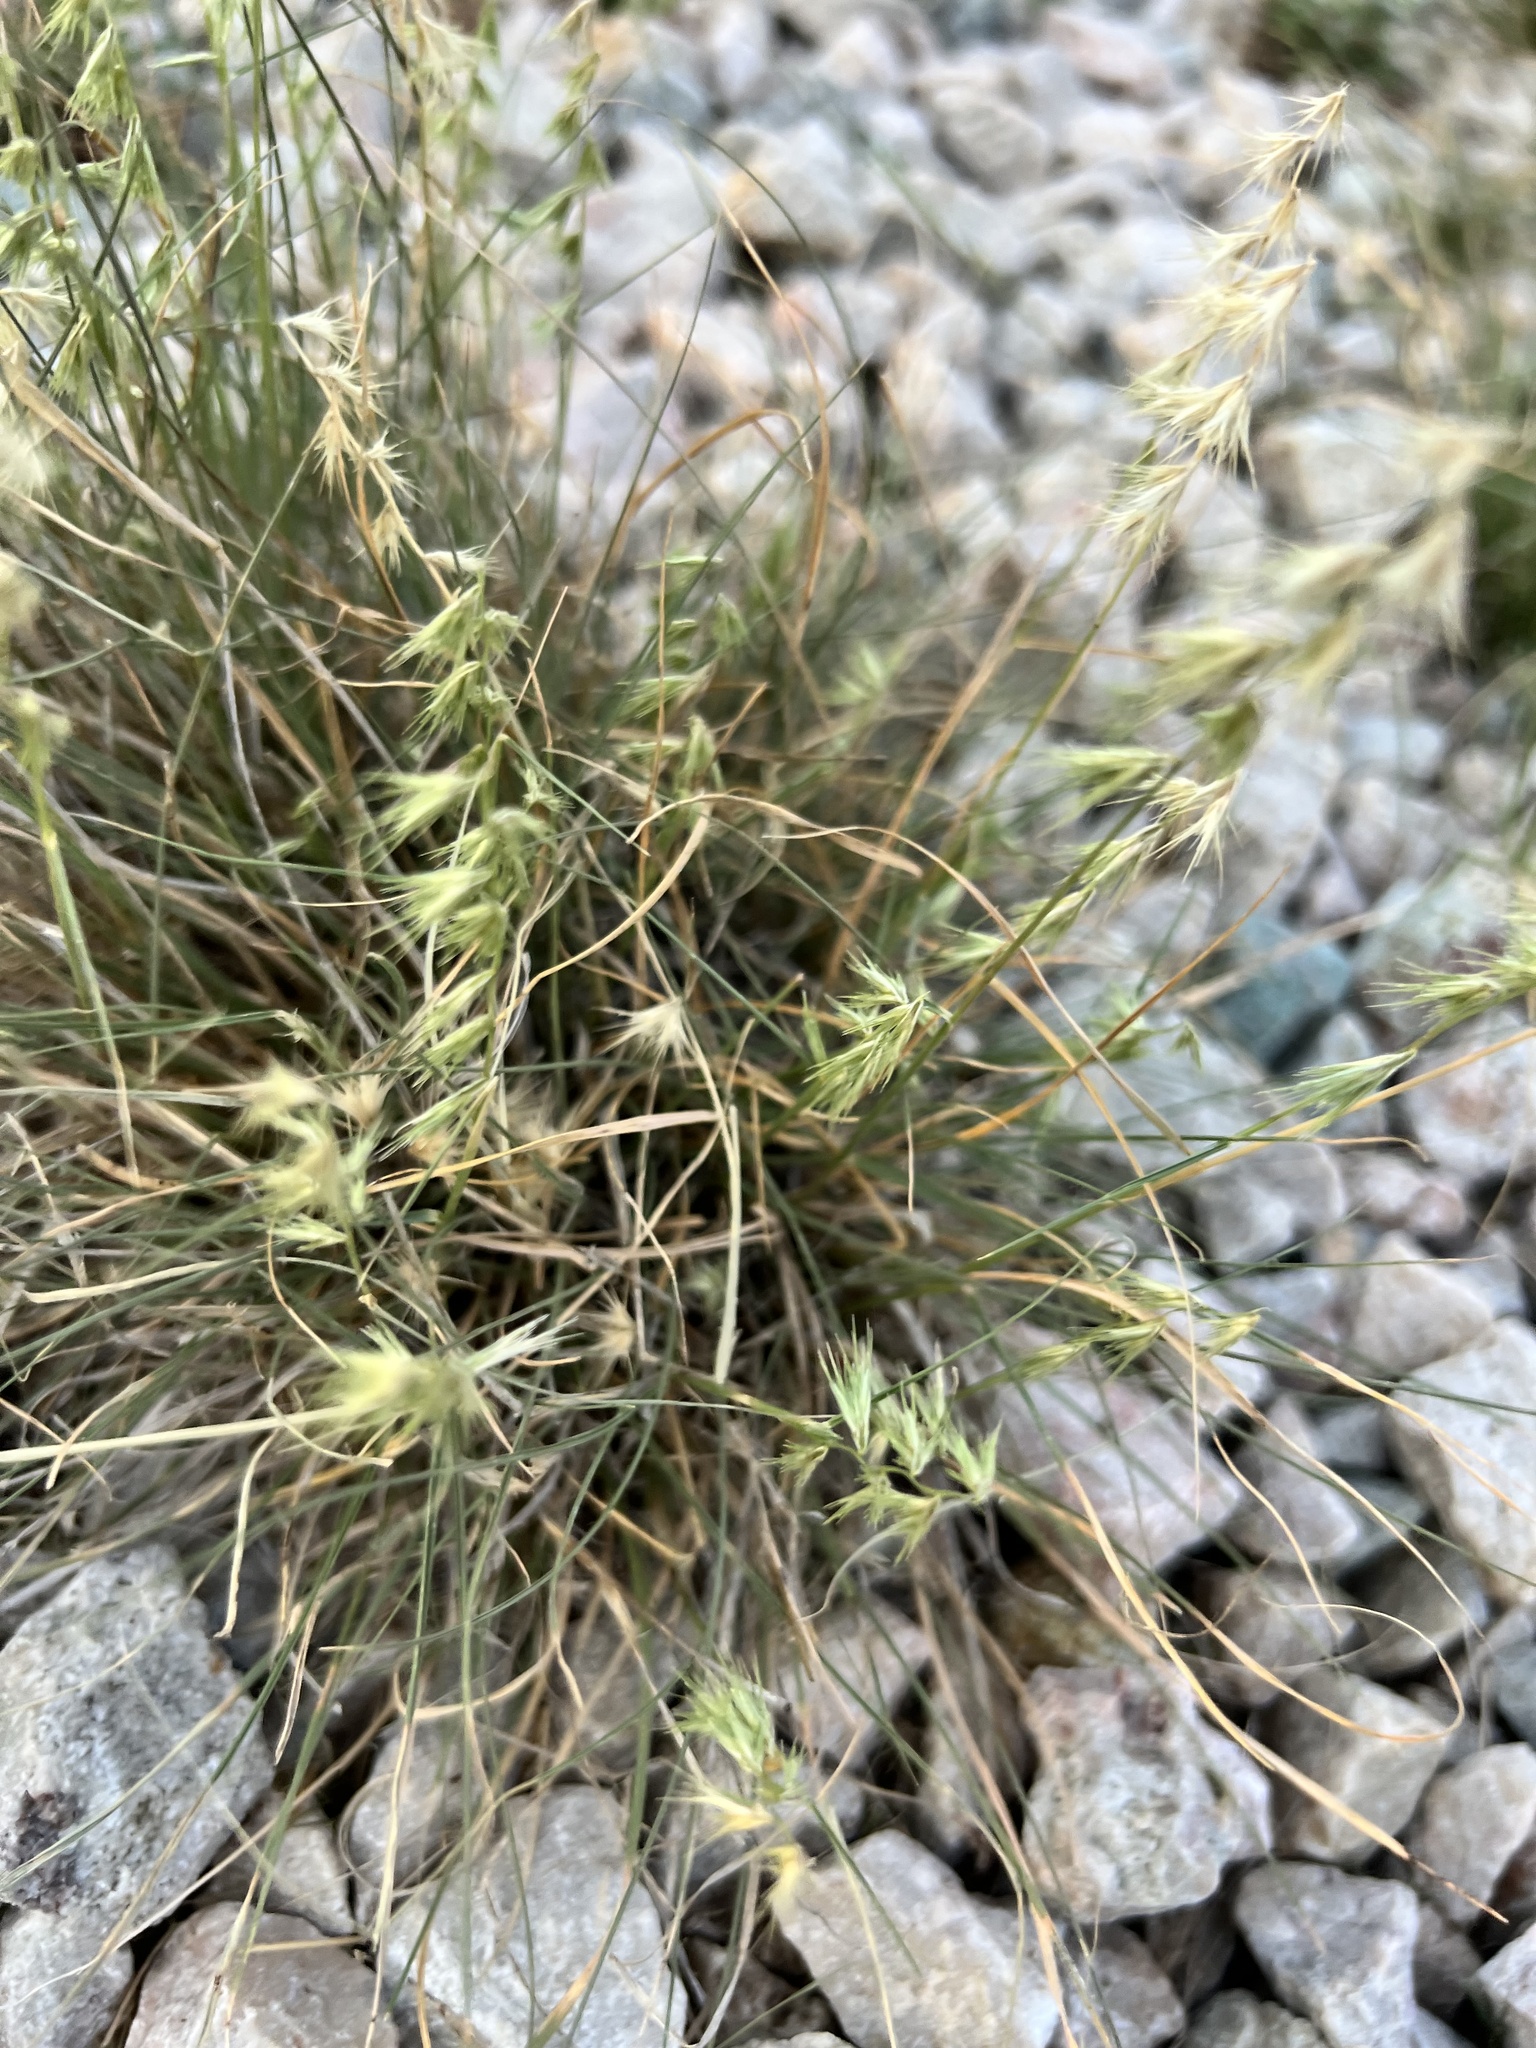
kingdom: Plantae
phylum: Tracheophyta
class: Liliopsida
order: Poales
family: Poaceae
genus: Bouteloua
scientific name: Bouteloua rigidiseta
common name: Texas grama
